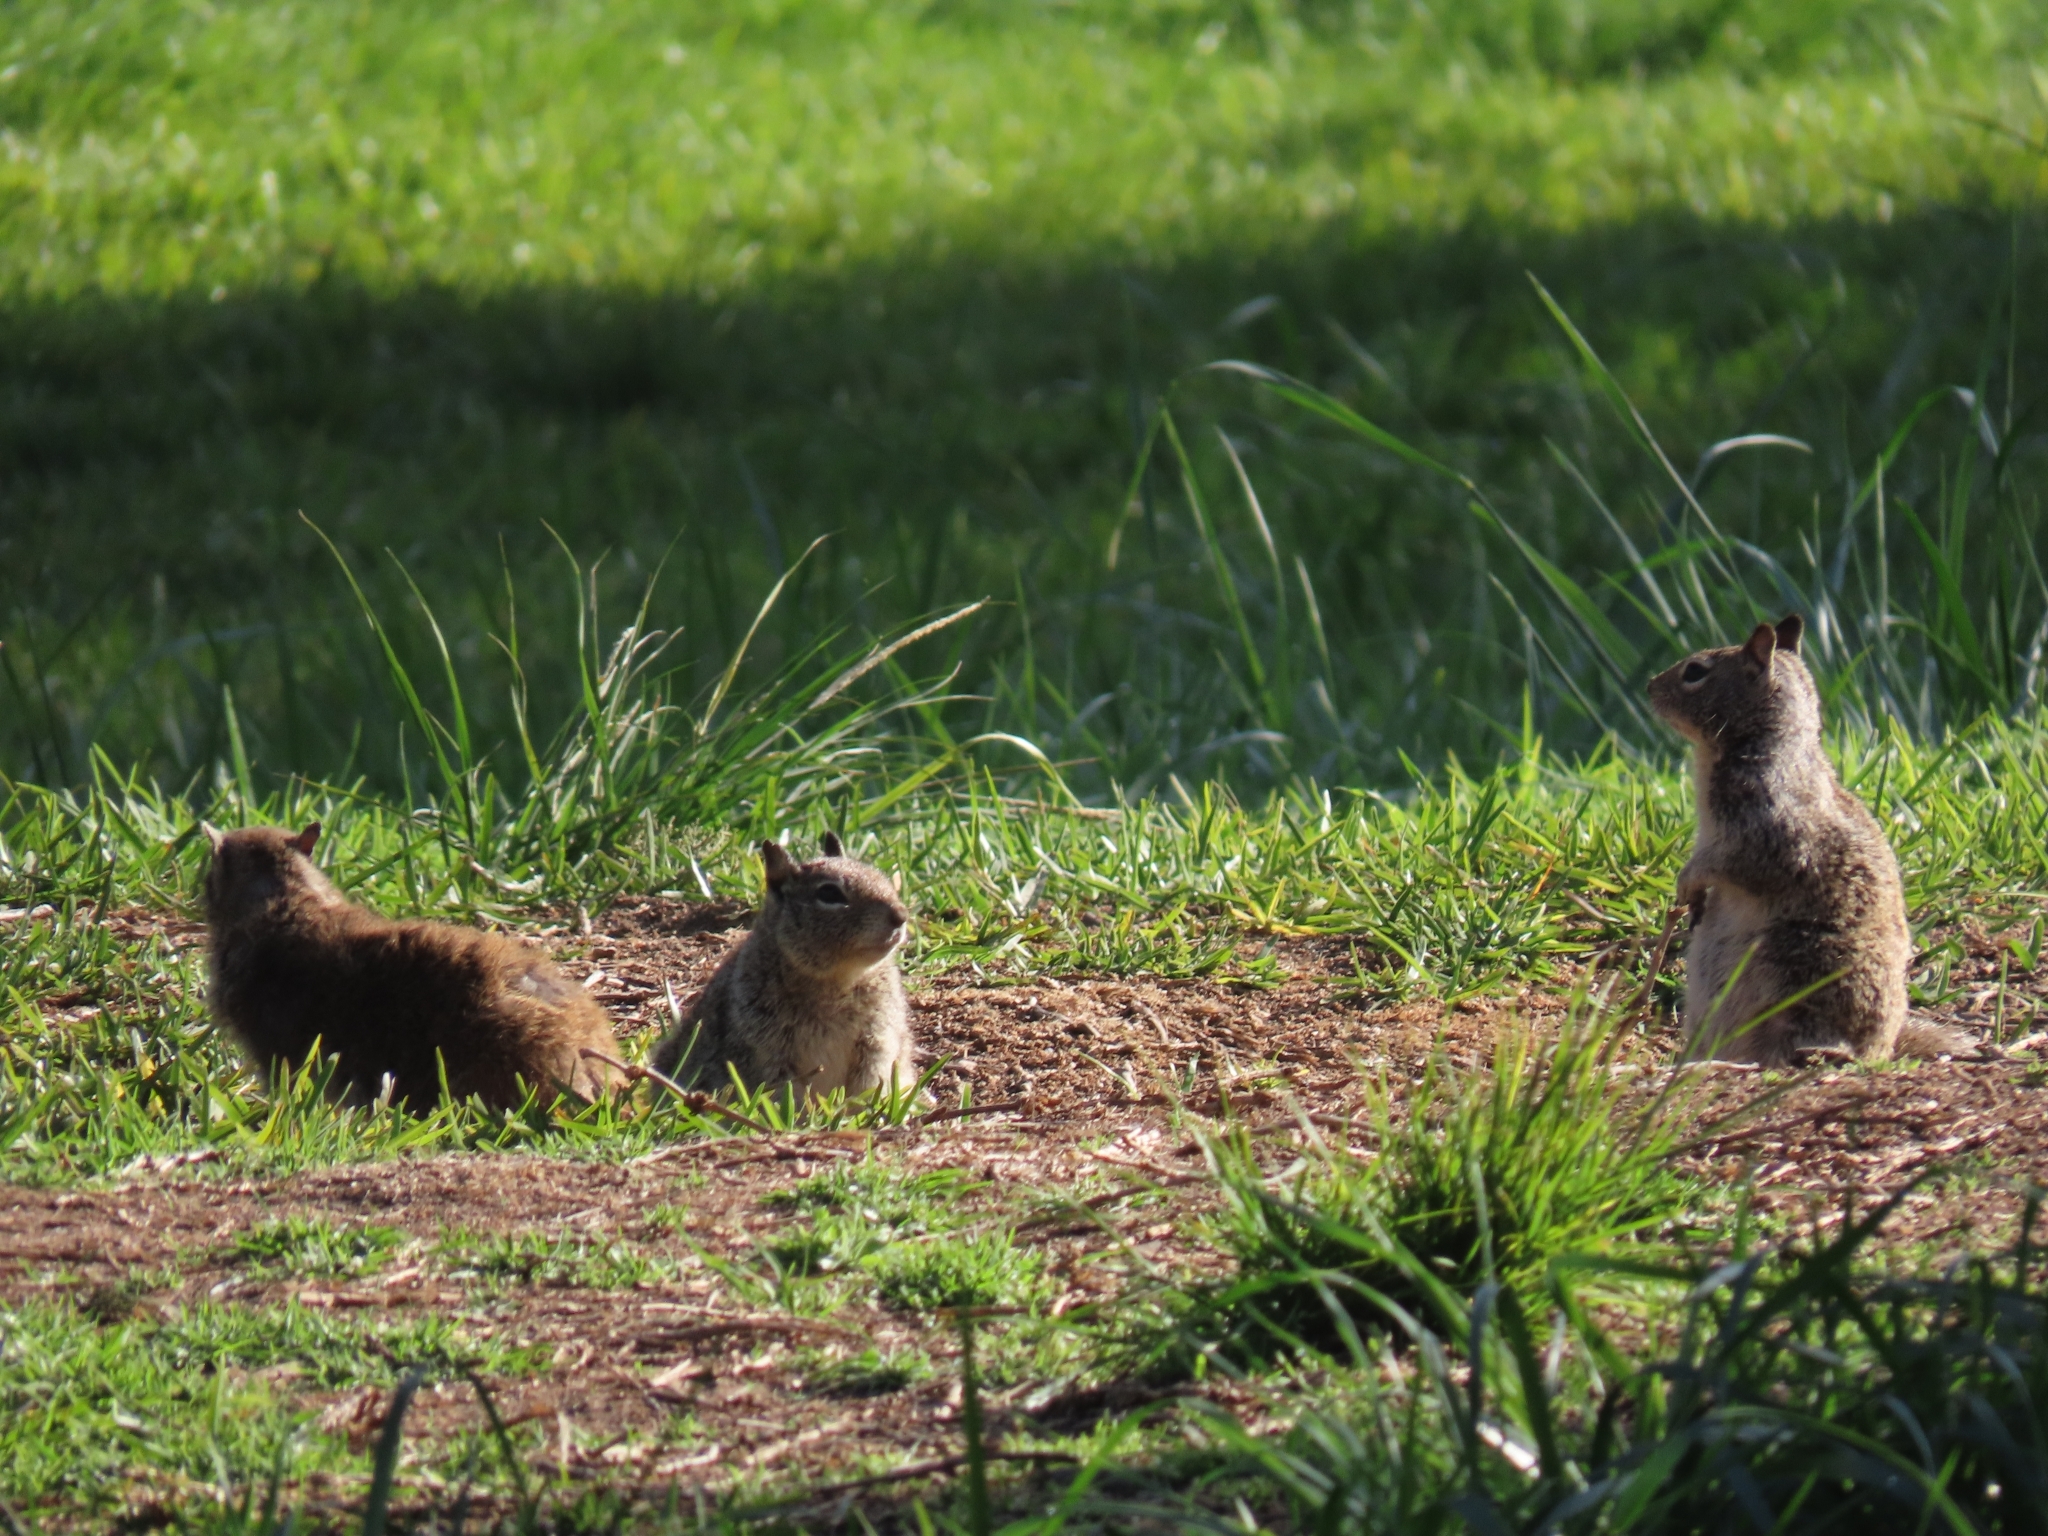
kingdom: Animalia
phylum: Chordata
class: Mammalia
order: Rodentia
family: Sciuridae
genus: Otospermophilus
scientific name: Otospermophilus beecheyi
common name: California ground squirrel
